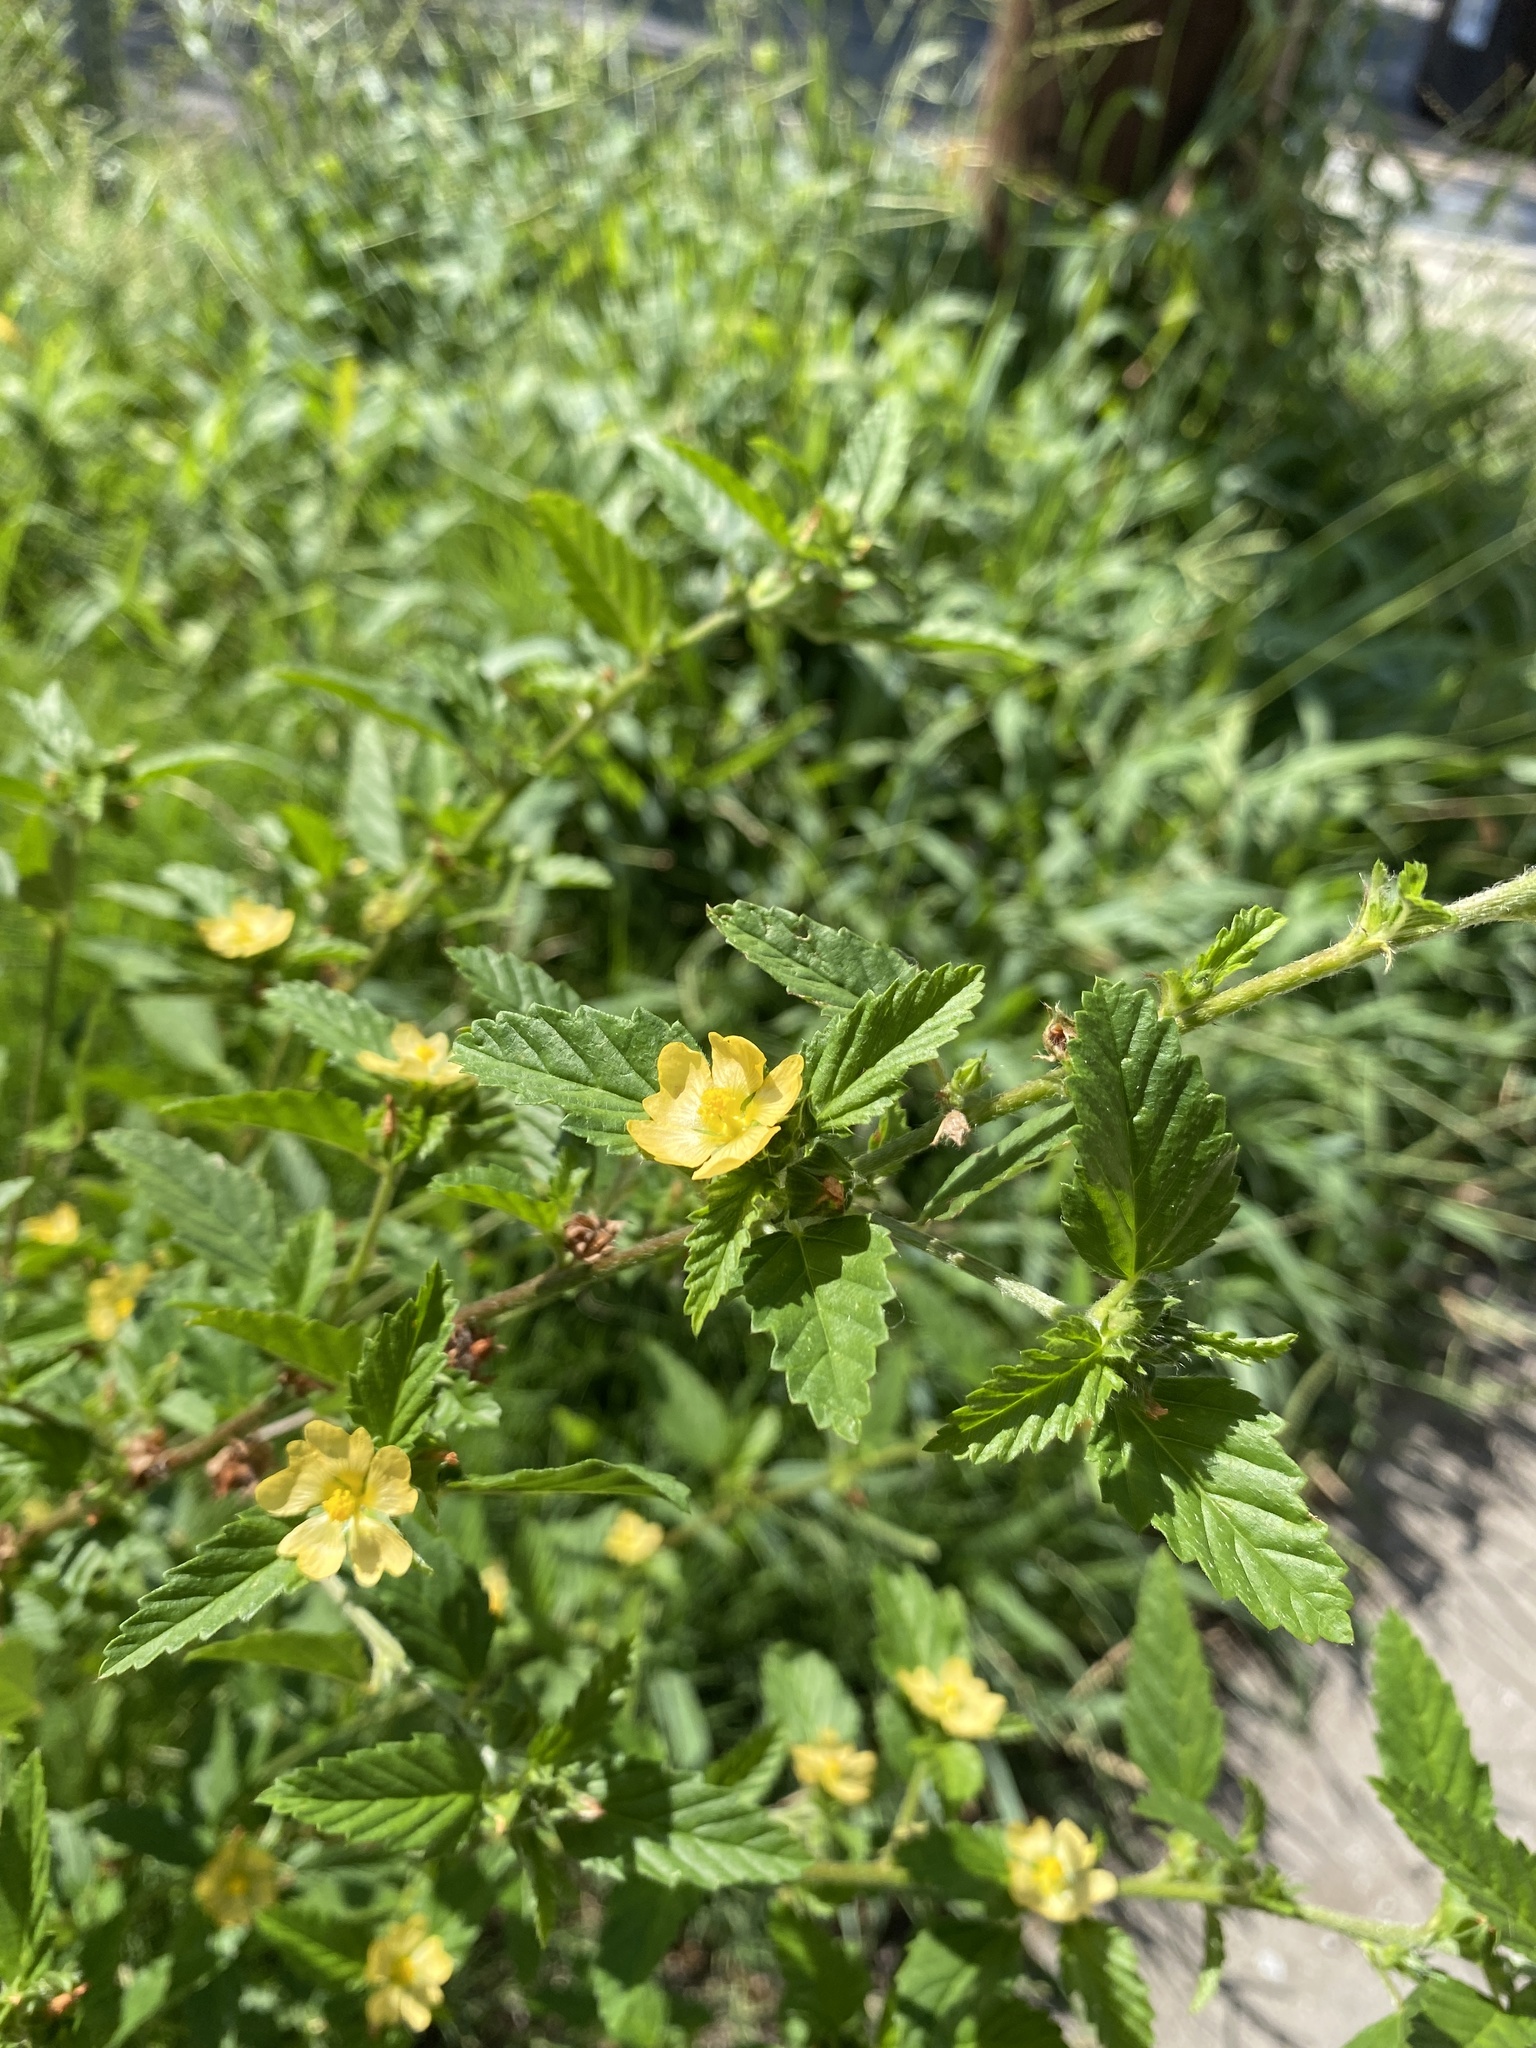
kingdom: Plantae
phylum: Tracheophyta
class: Magnoliopsida
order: Malvales
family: Malvaceae
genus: Malvastrum
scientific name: Malvastrum coromandelianum
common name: Threelobe false mallow
